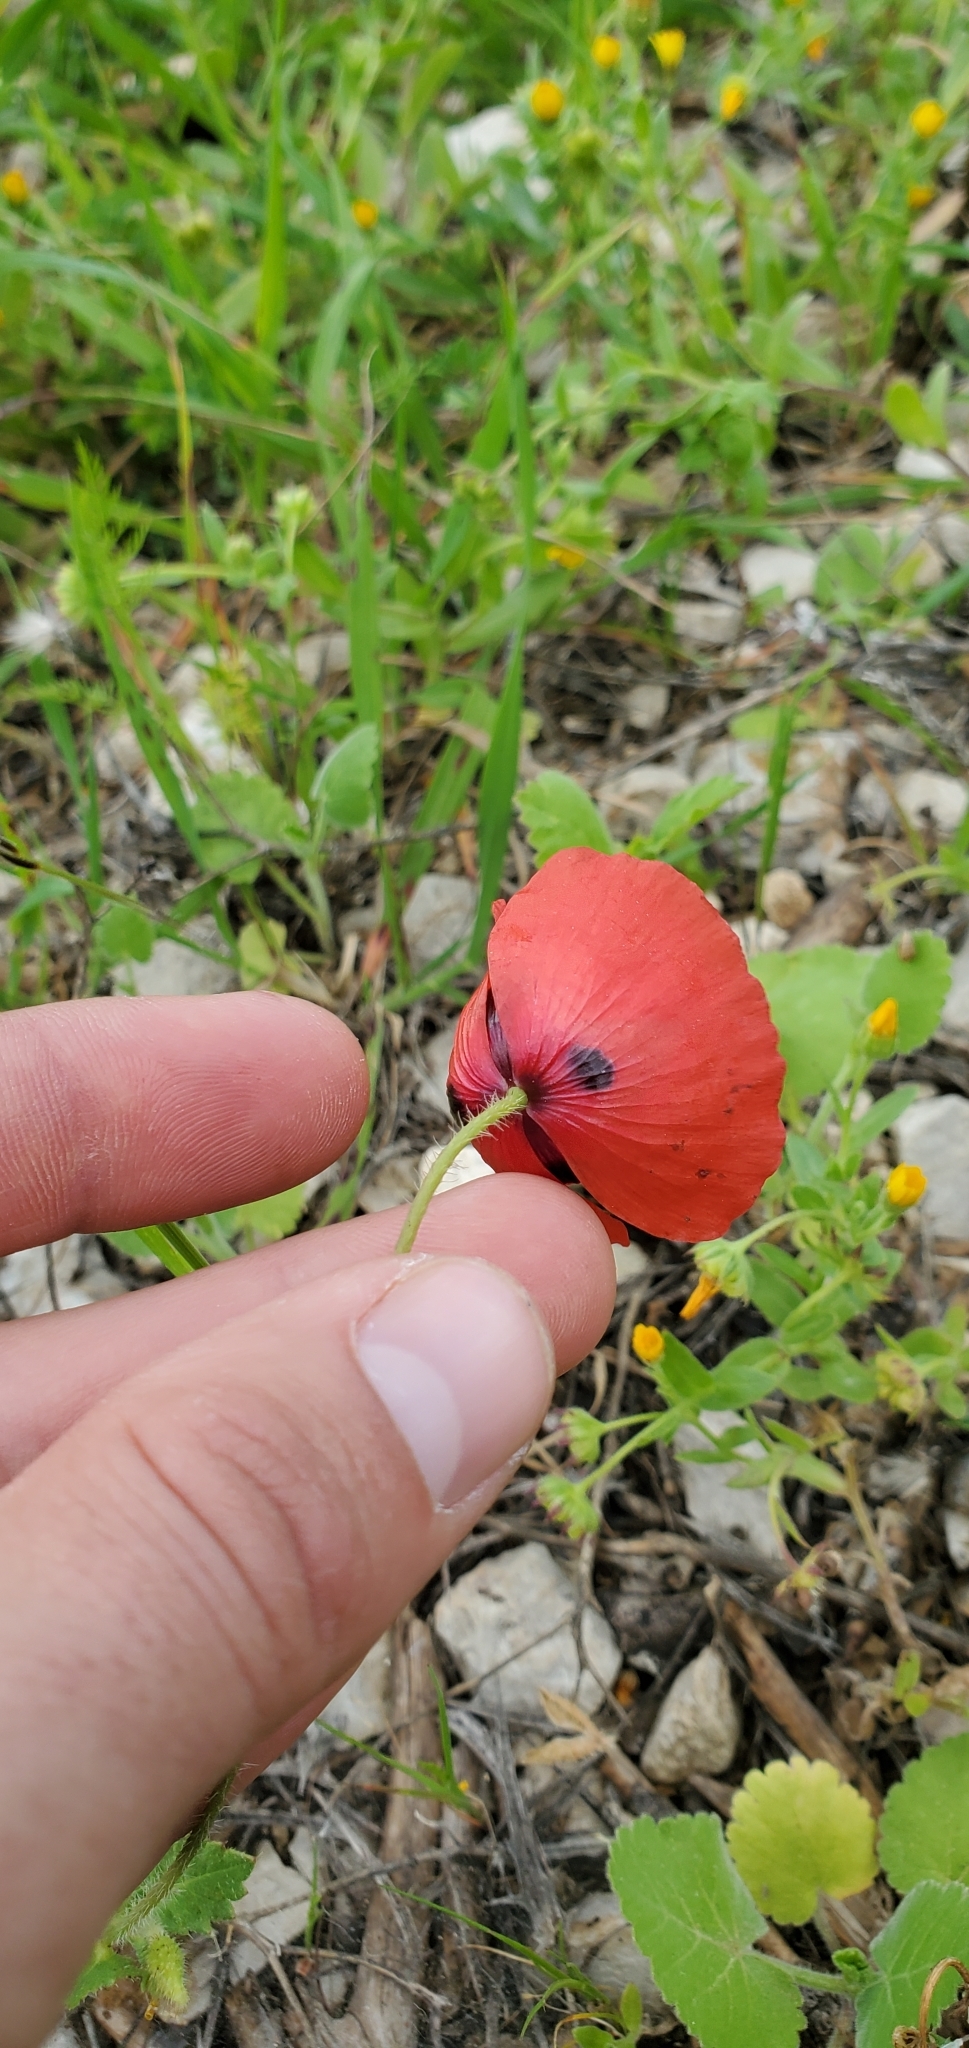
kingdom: Plantae
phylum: Tracheophyta
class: Magnoliopsida
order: Ranunculales
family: Papaveraceae
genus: Papaver
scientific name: Papaver umbonatum
